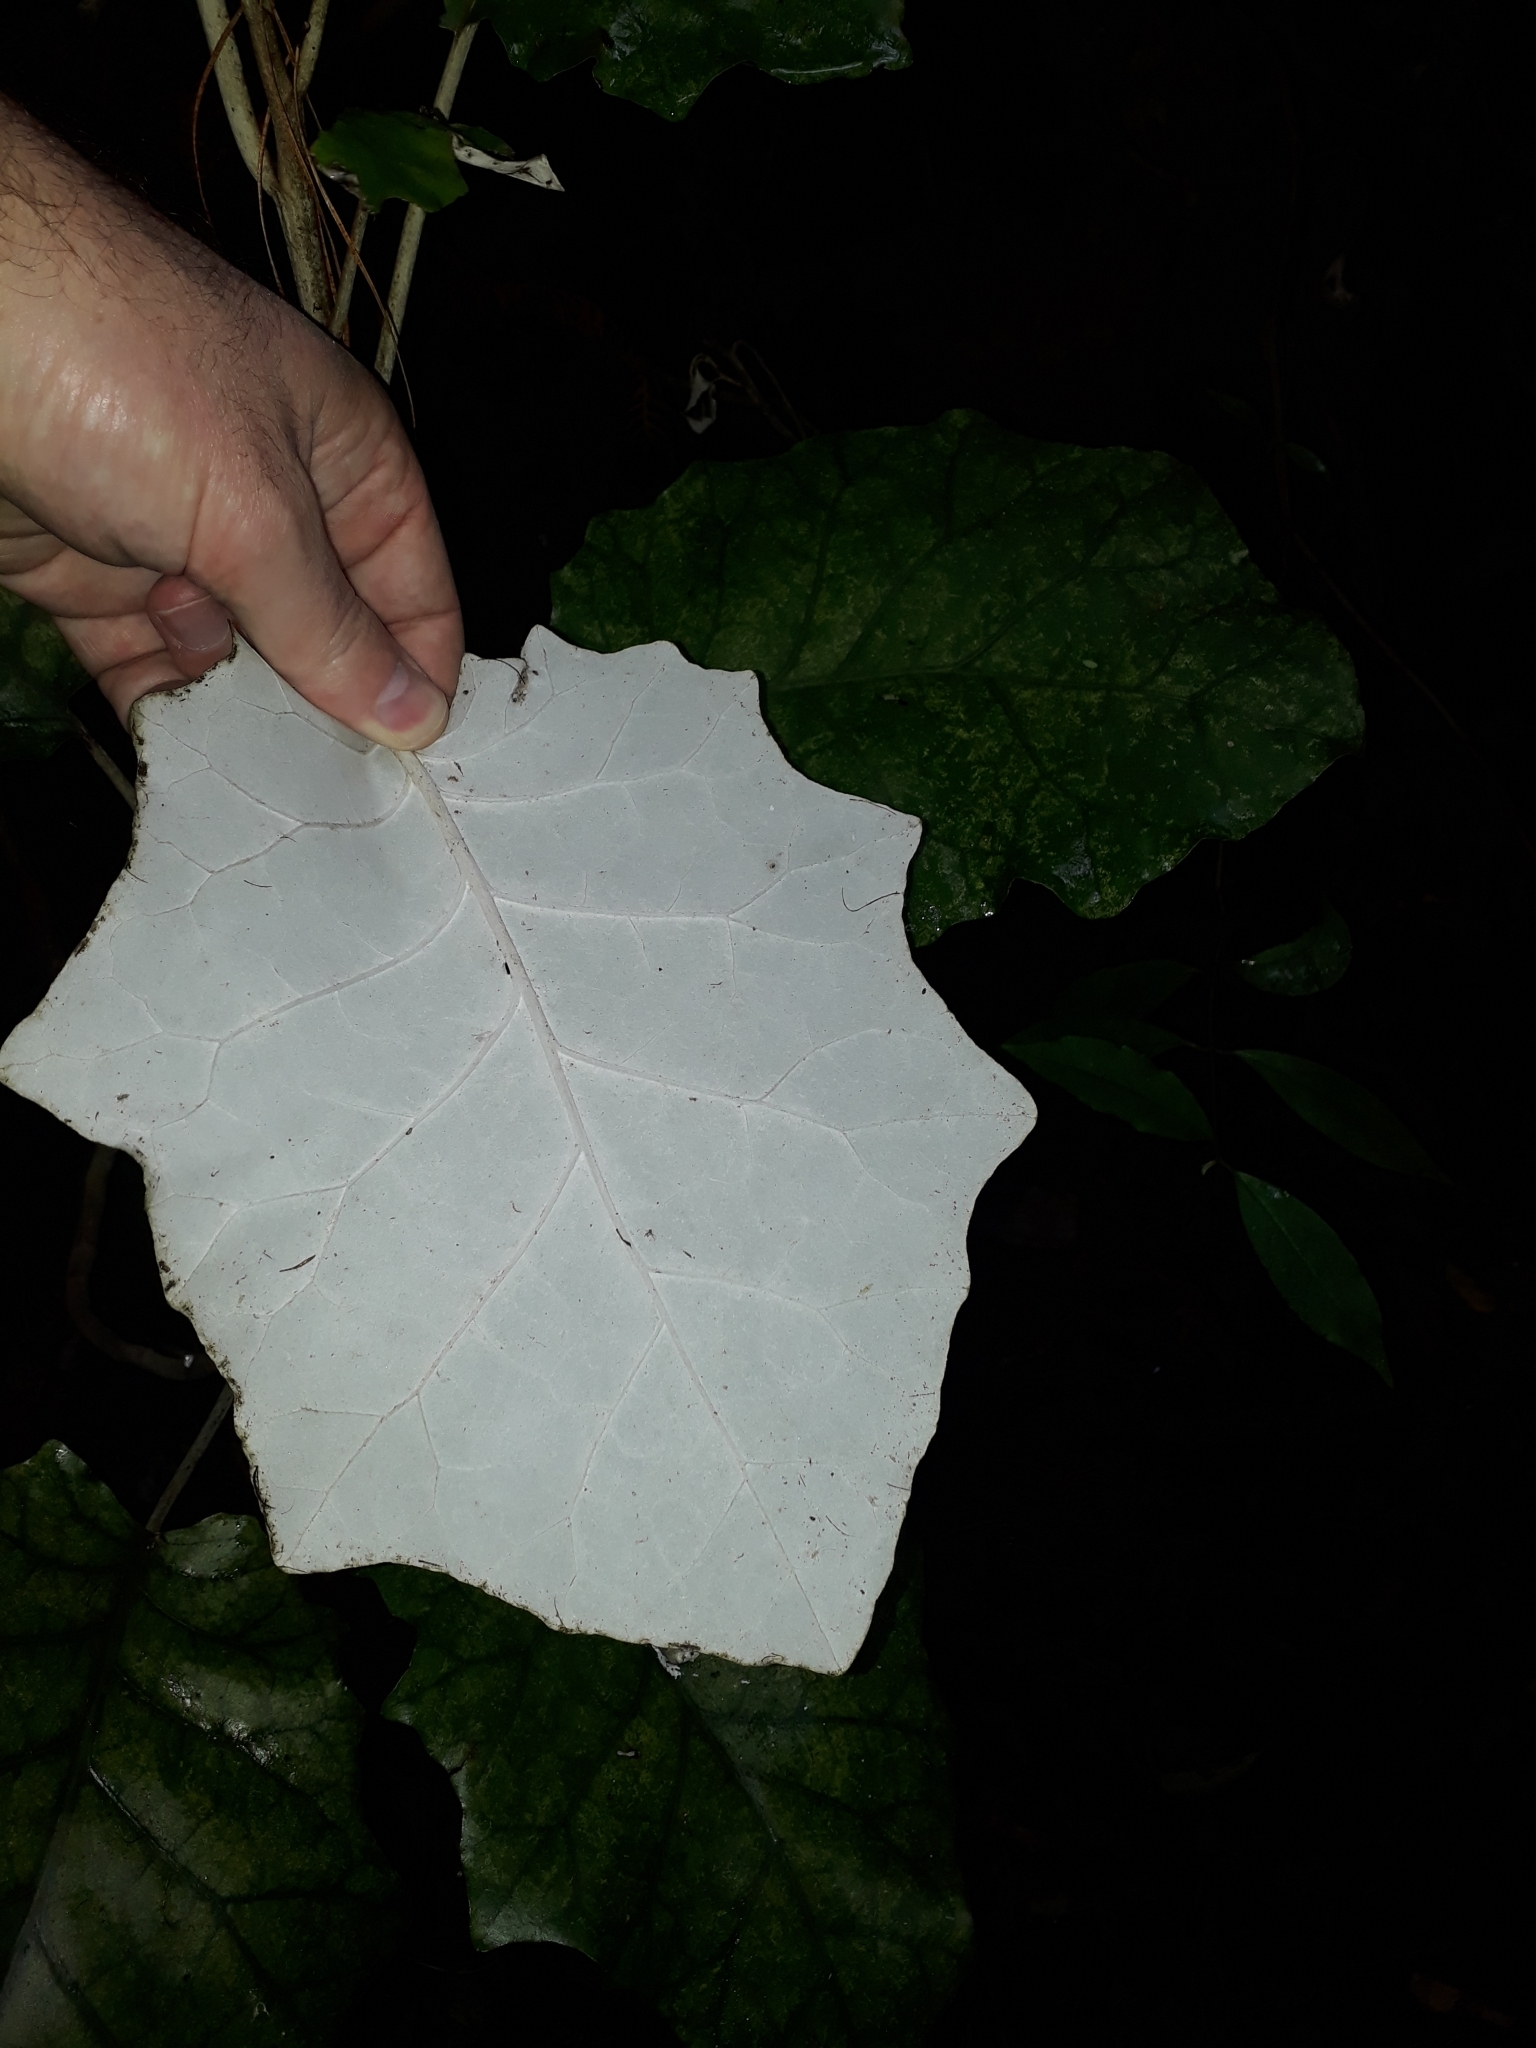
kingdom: Plantae
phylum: Tracheophyta
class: Magnoliopsida
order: Asterales
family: Asteraceae
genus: Brachyglottis
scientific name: Brachyglottis repanda
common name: Hedge ragwort
